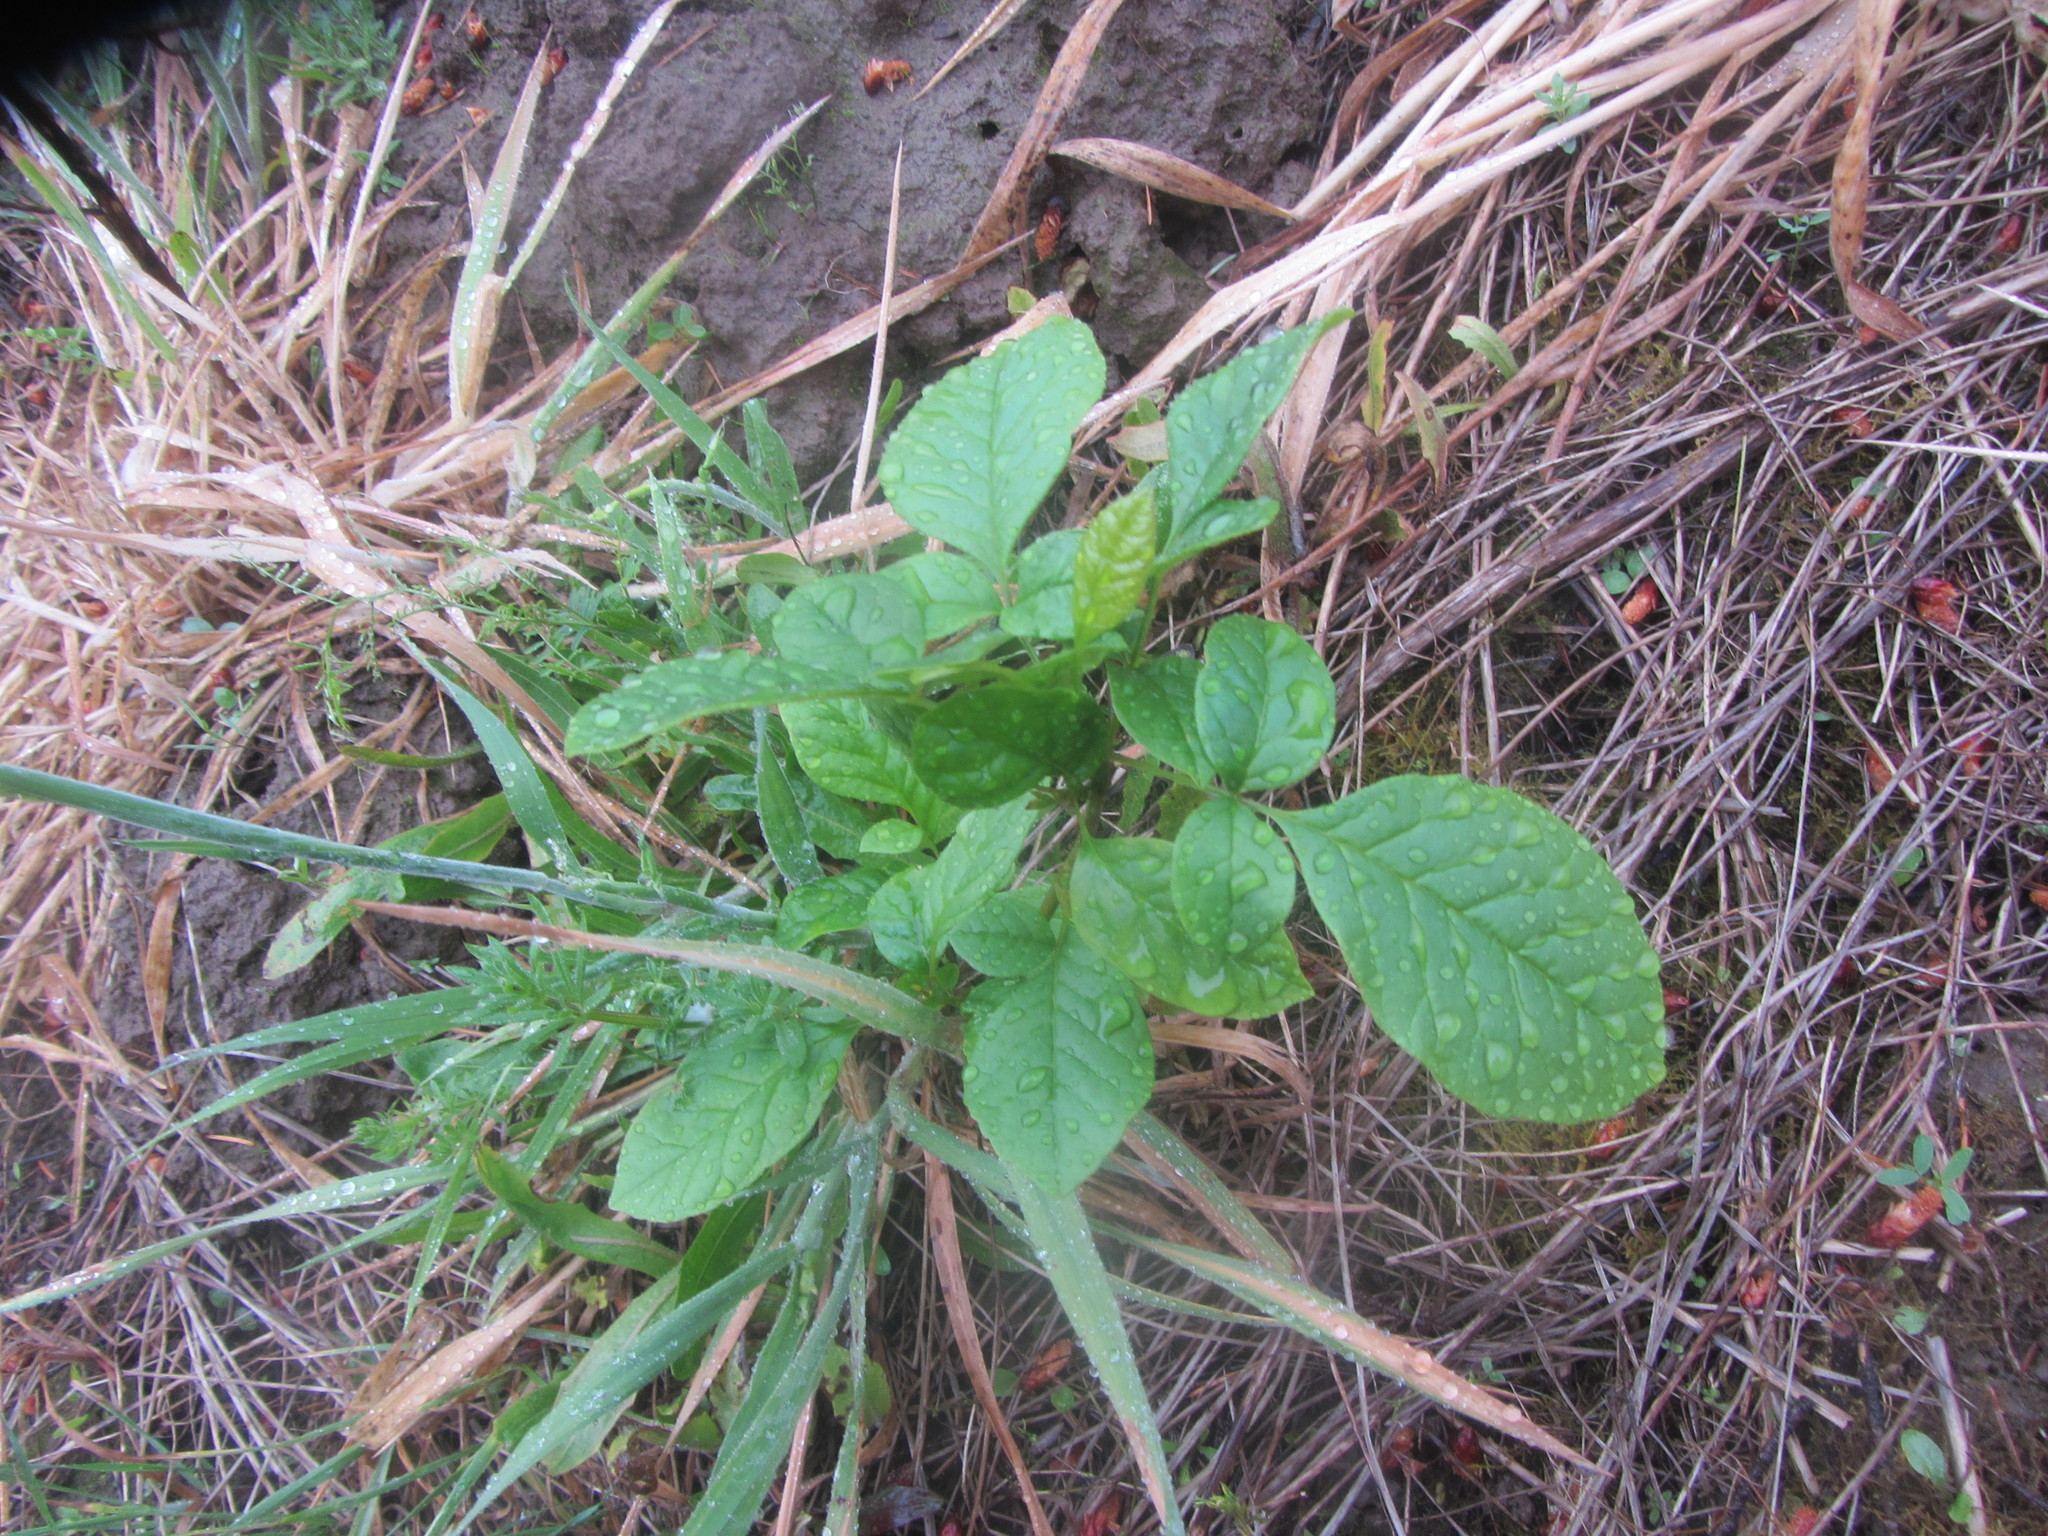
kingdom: Plantae
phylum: Tracheophyta
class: Magnoliopsida
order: Lamiales
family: Oleaceae
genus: Fraxinus
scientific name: Fraxinus latifolia
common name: Oregon ash
